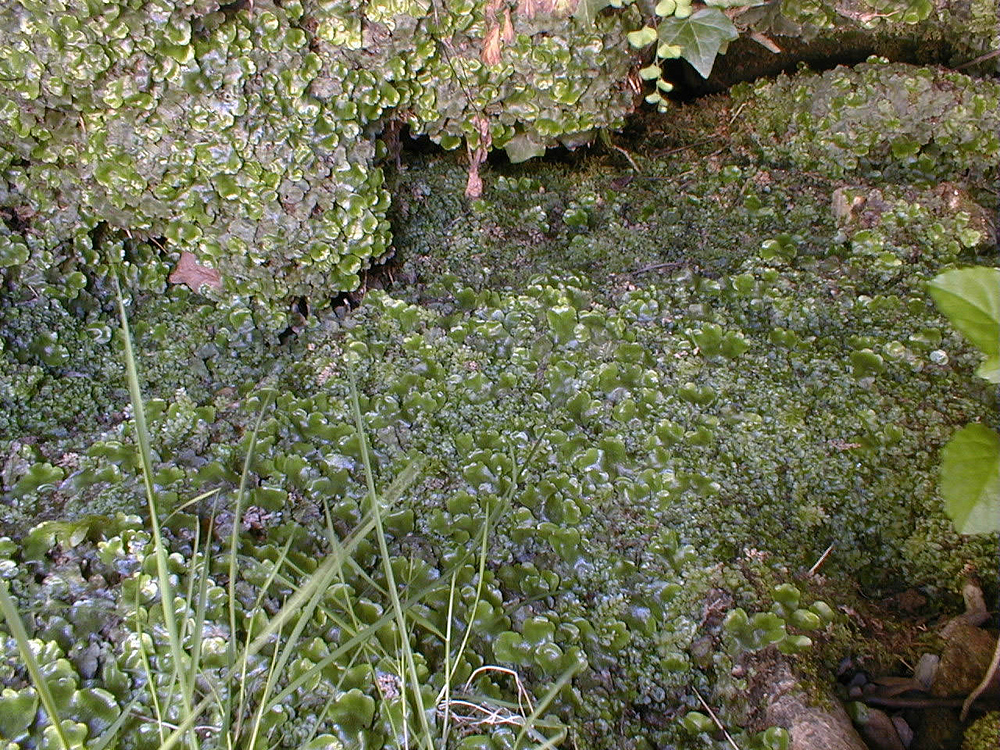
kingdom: Plantae
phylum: Marchantiophyta
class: Marchantiopsida
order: Lunulariales
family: Lunulariaceae
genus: Lunularia
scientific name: Lunularia cruciata
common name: Crescent-cup liverwort
